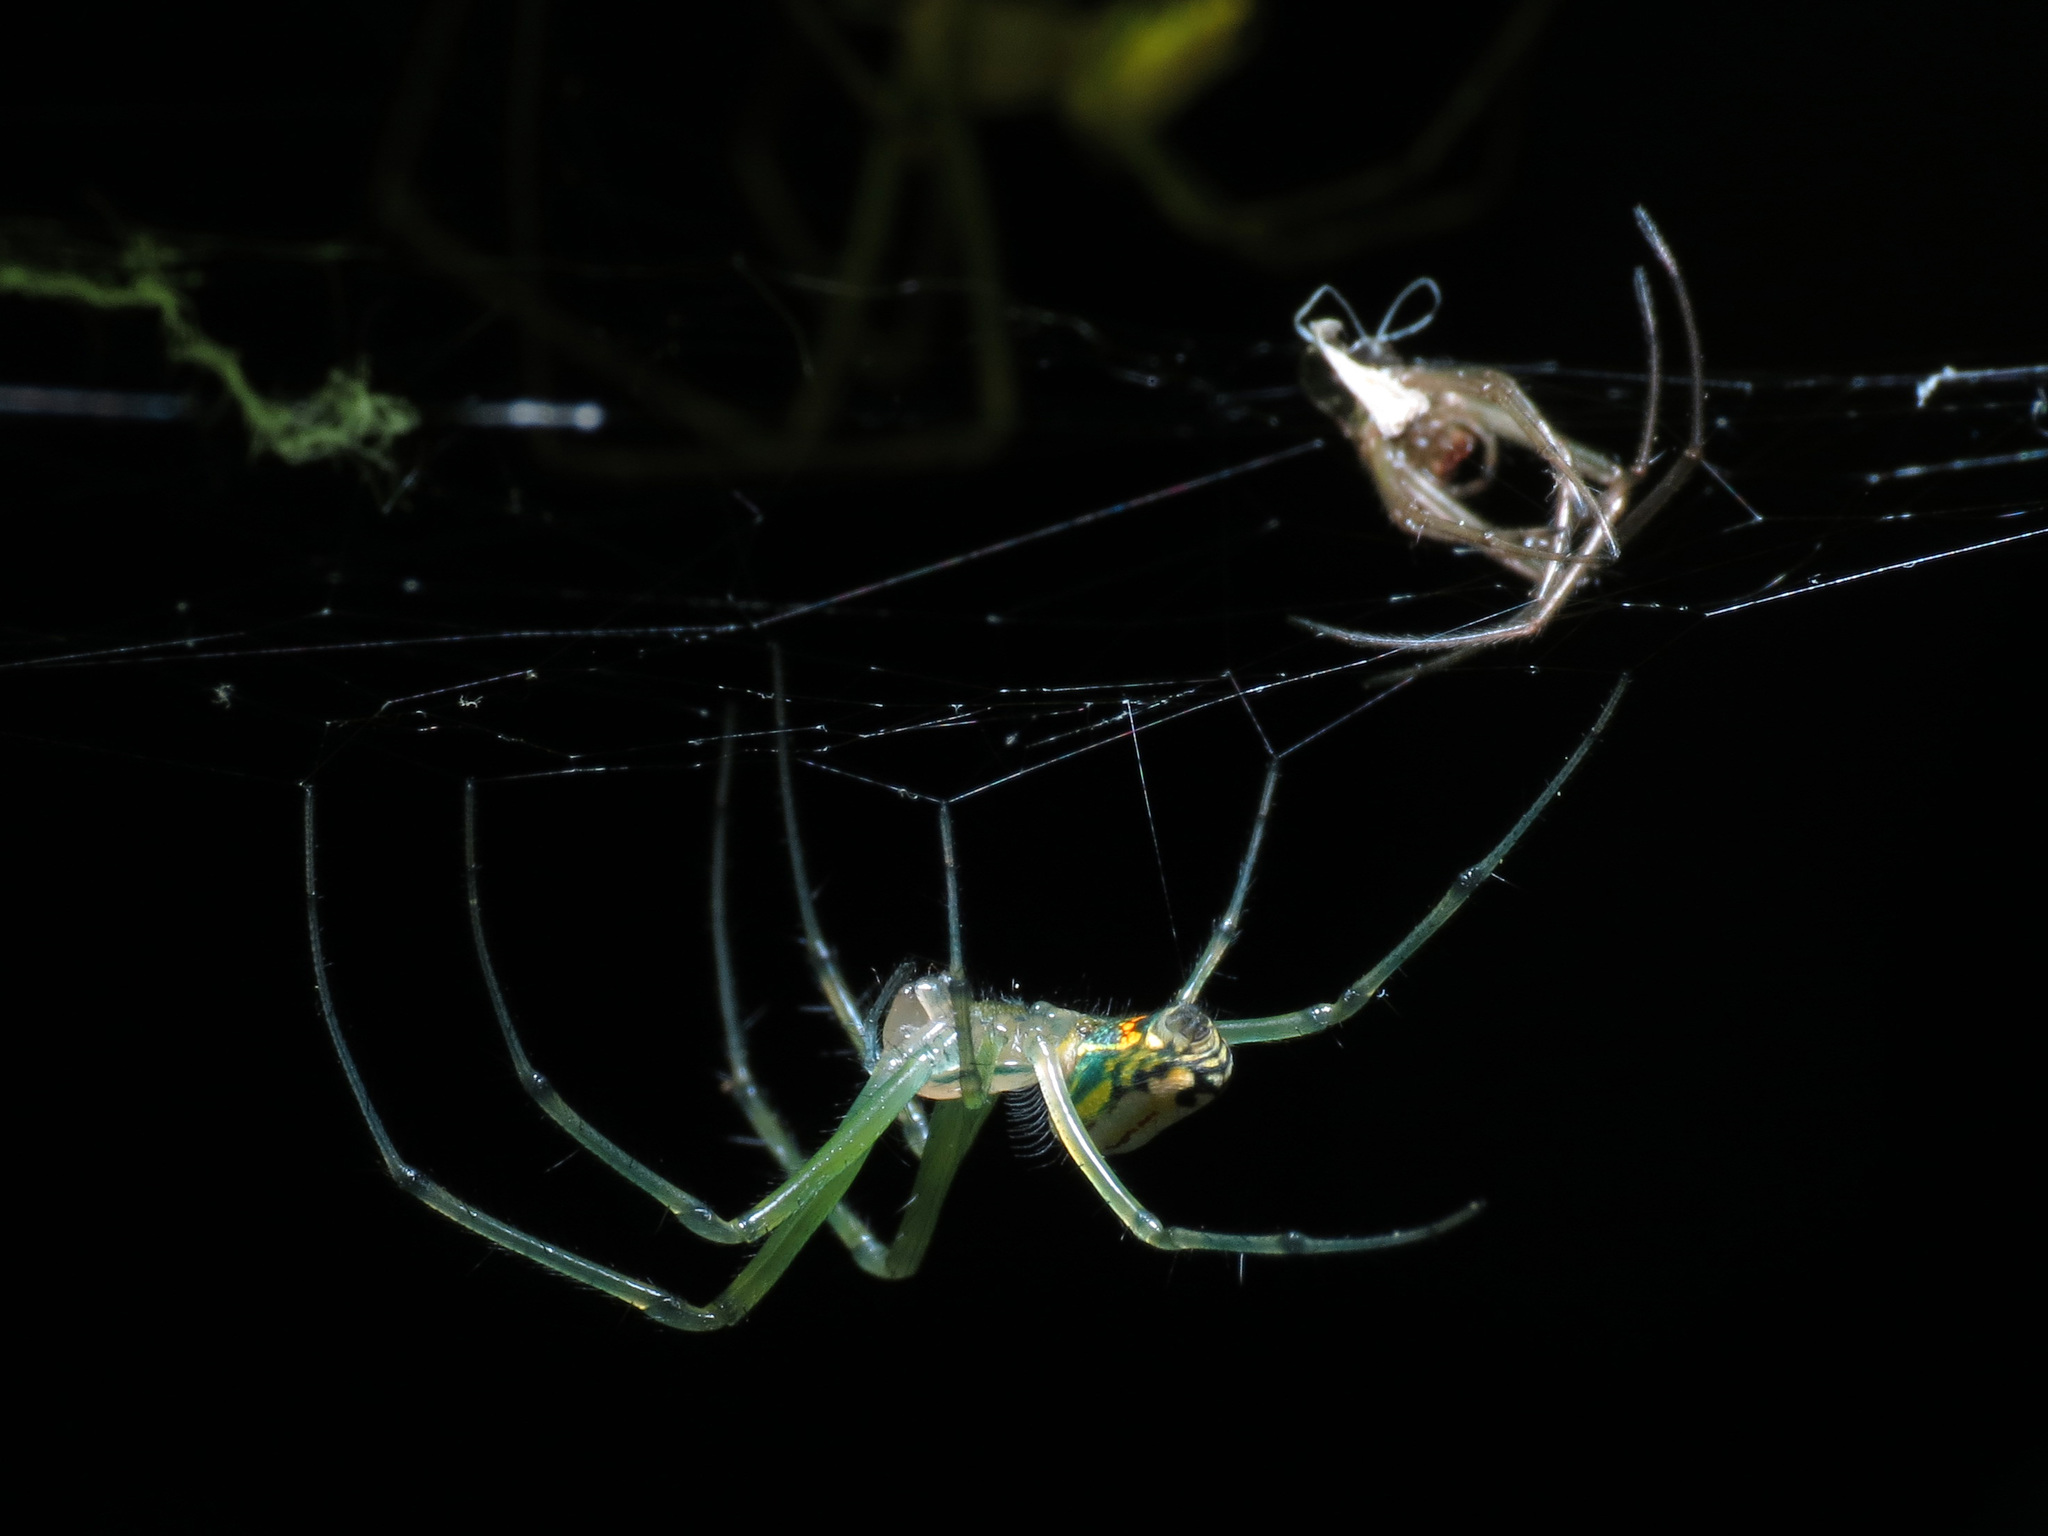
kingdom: Animalia
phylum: Arthropoda
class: Arachnida
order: Araneae
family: Tetragnathidae
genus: Leucauge
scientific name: Leucauge venusta
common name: Longjawed orb weavers
